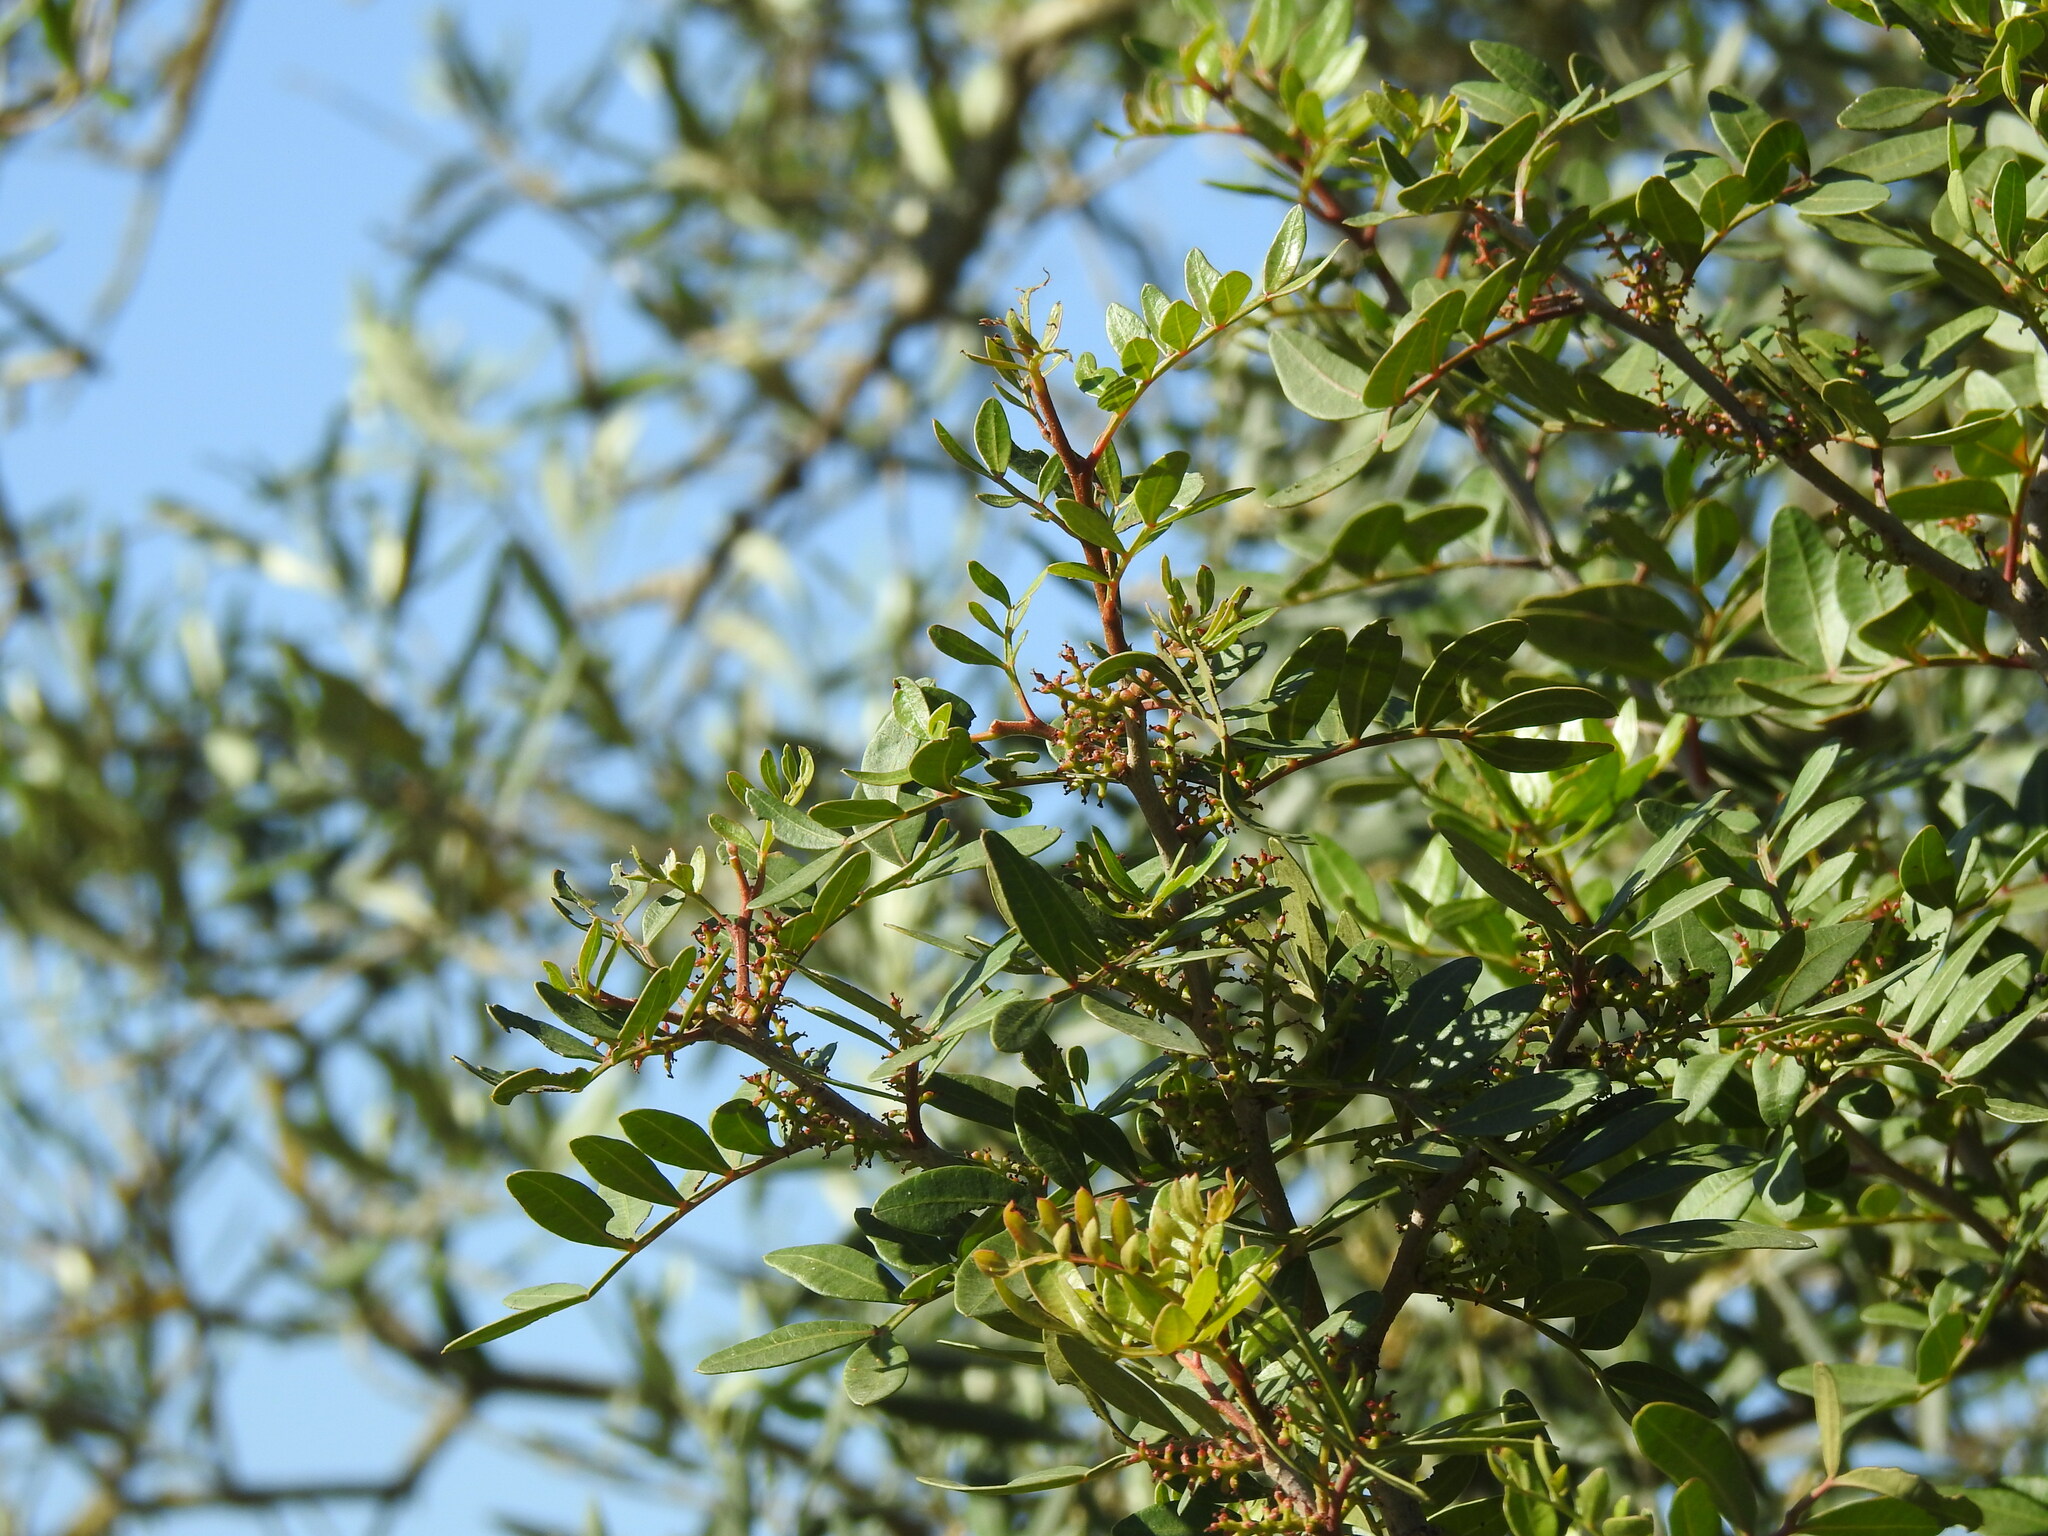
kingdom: Plantae
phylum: Tracheophyta
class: Magnoliopsida
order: Sapindales
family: Anacardiaceae
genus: Pistacia
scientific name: Pistacia lentiscus
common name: Lentisk
